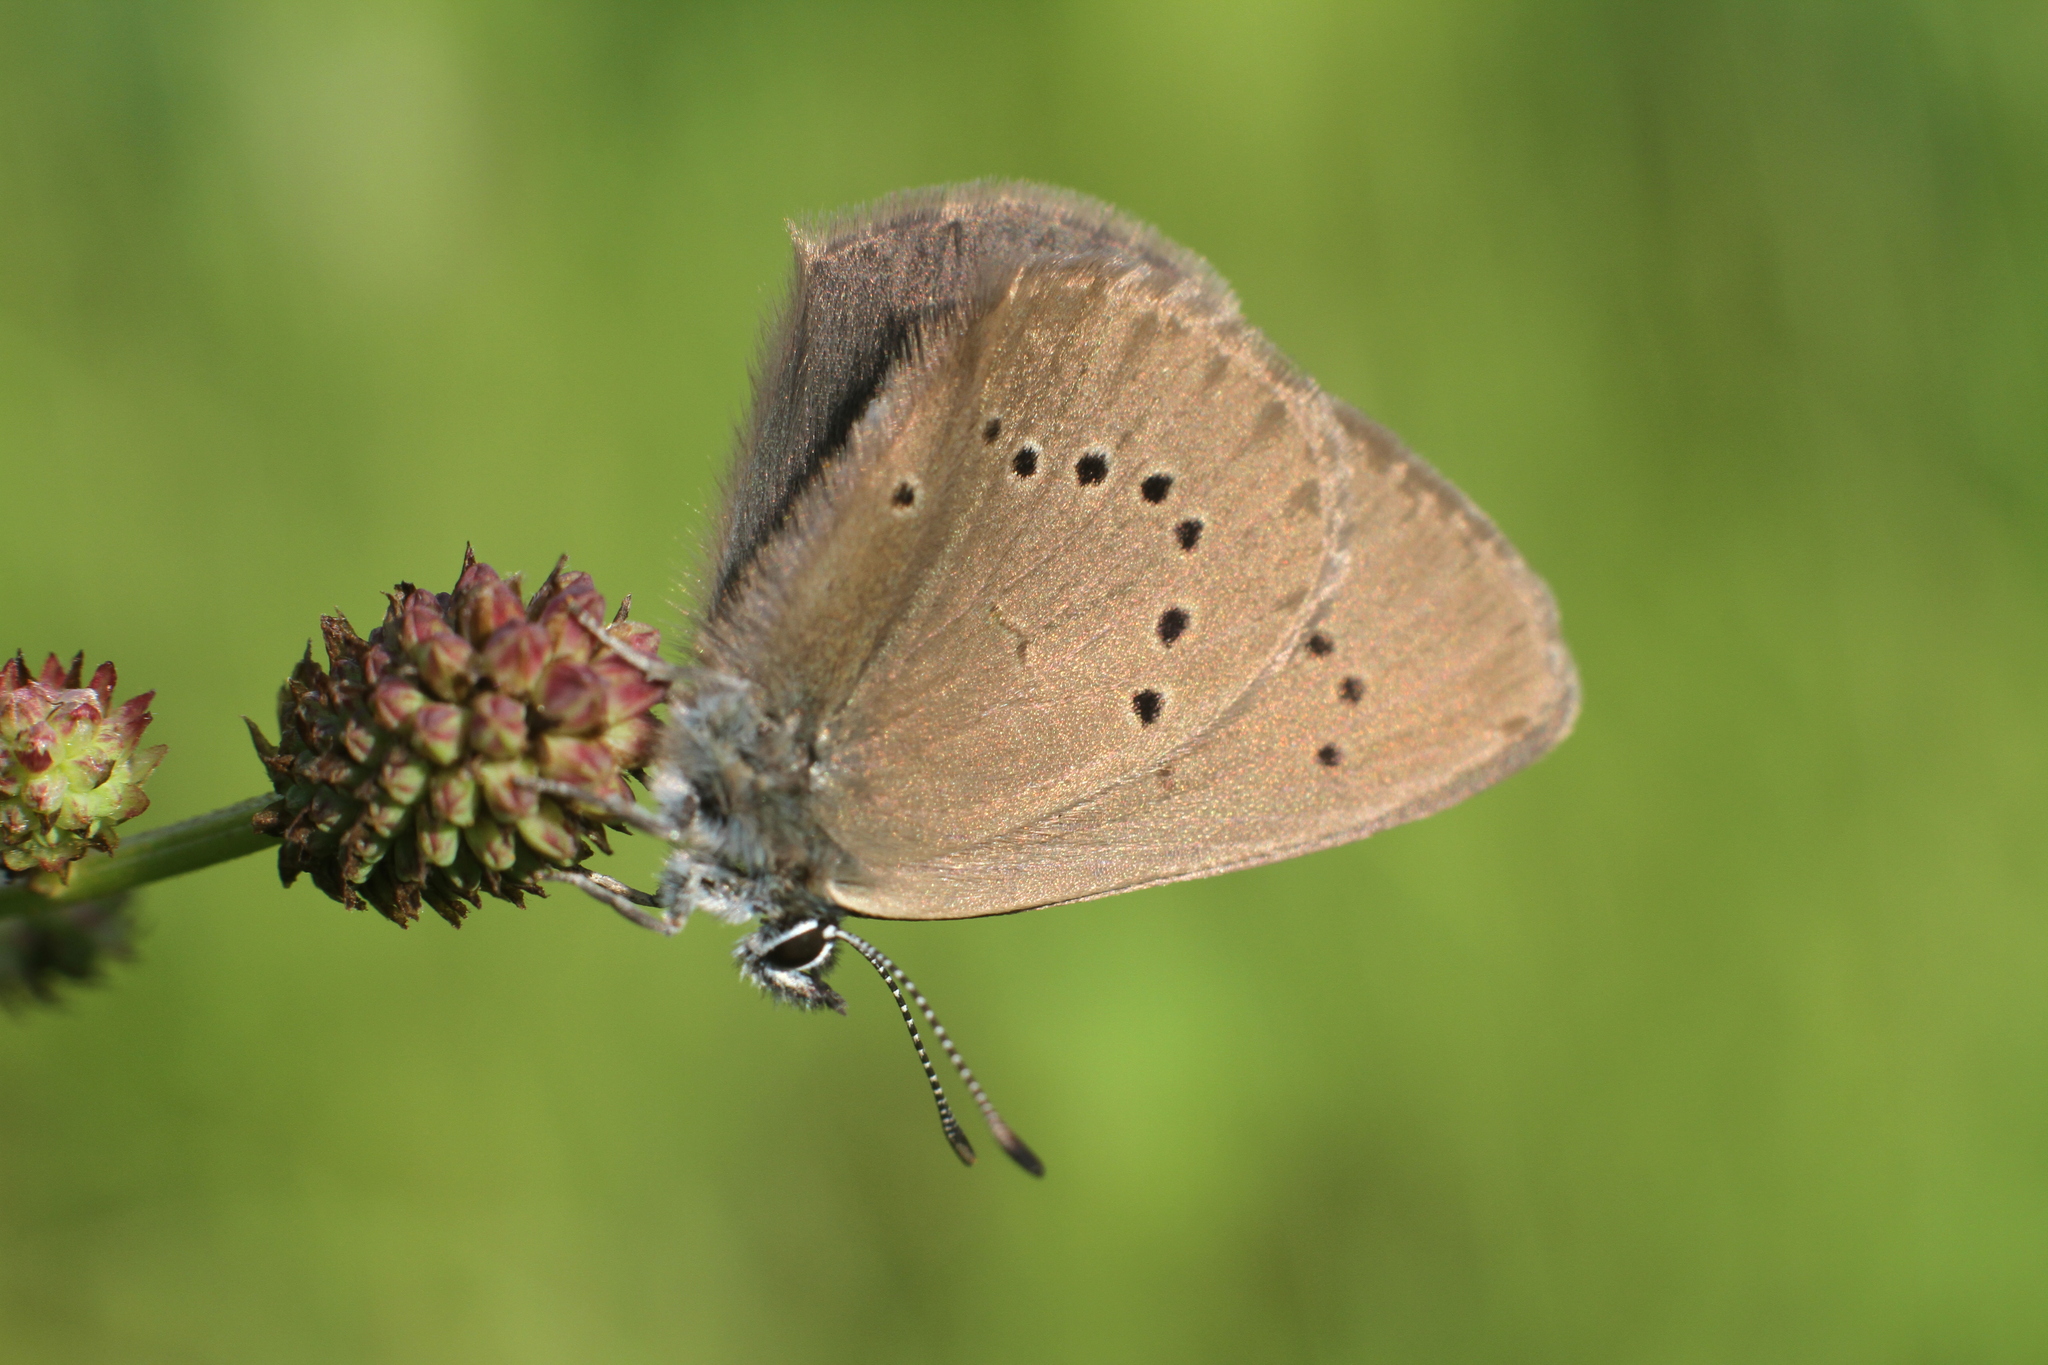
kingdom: Animalia
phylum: Arthropoda
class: Insecta
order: Lepidoptera
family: Lycaenidae
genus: Maculinea
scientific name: Maculinea nausithous
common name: Dusky large blue
